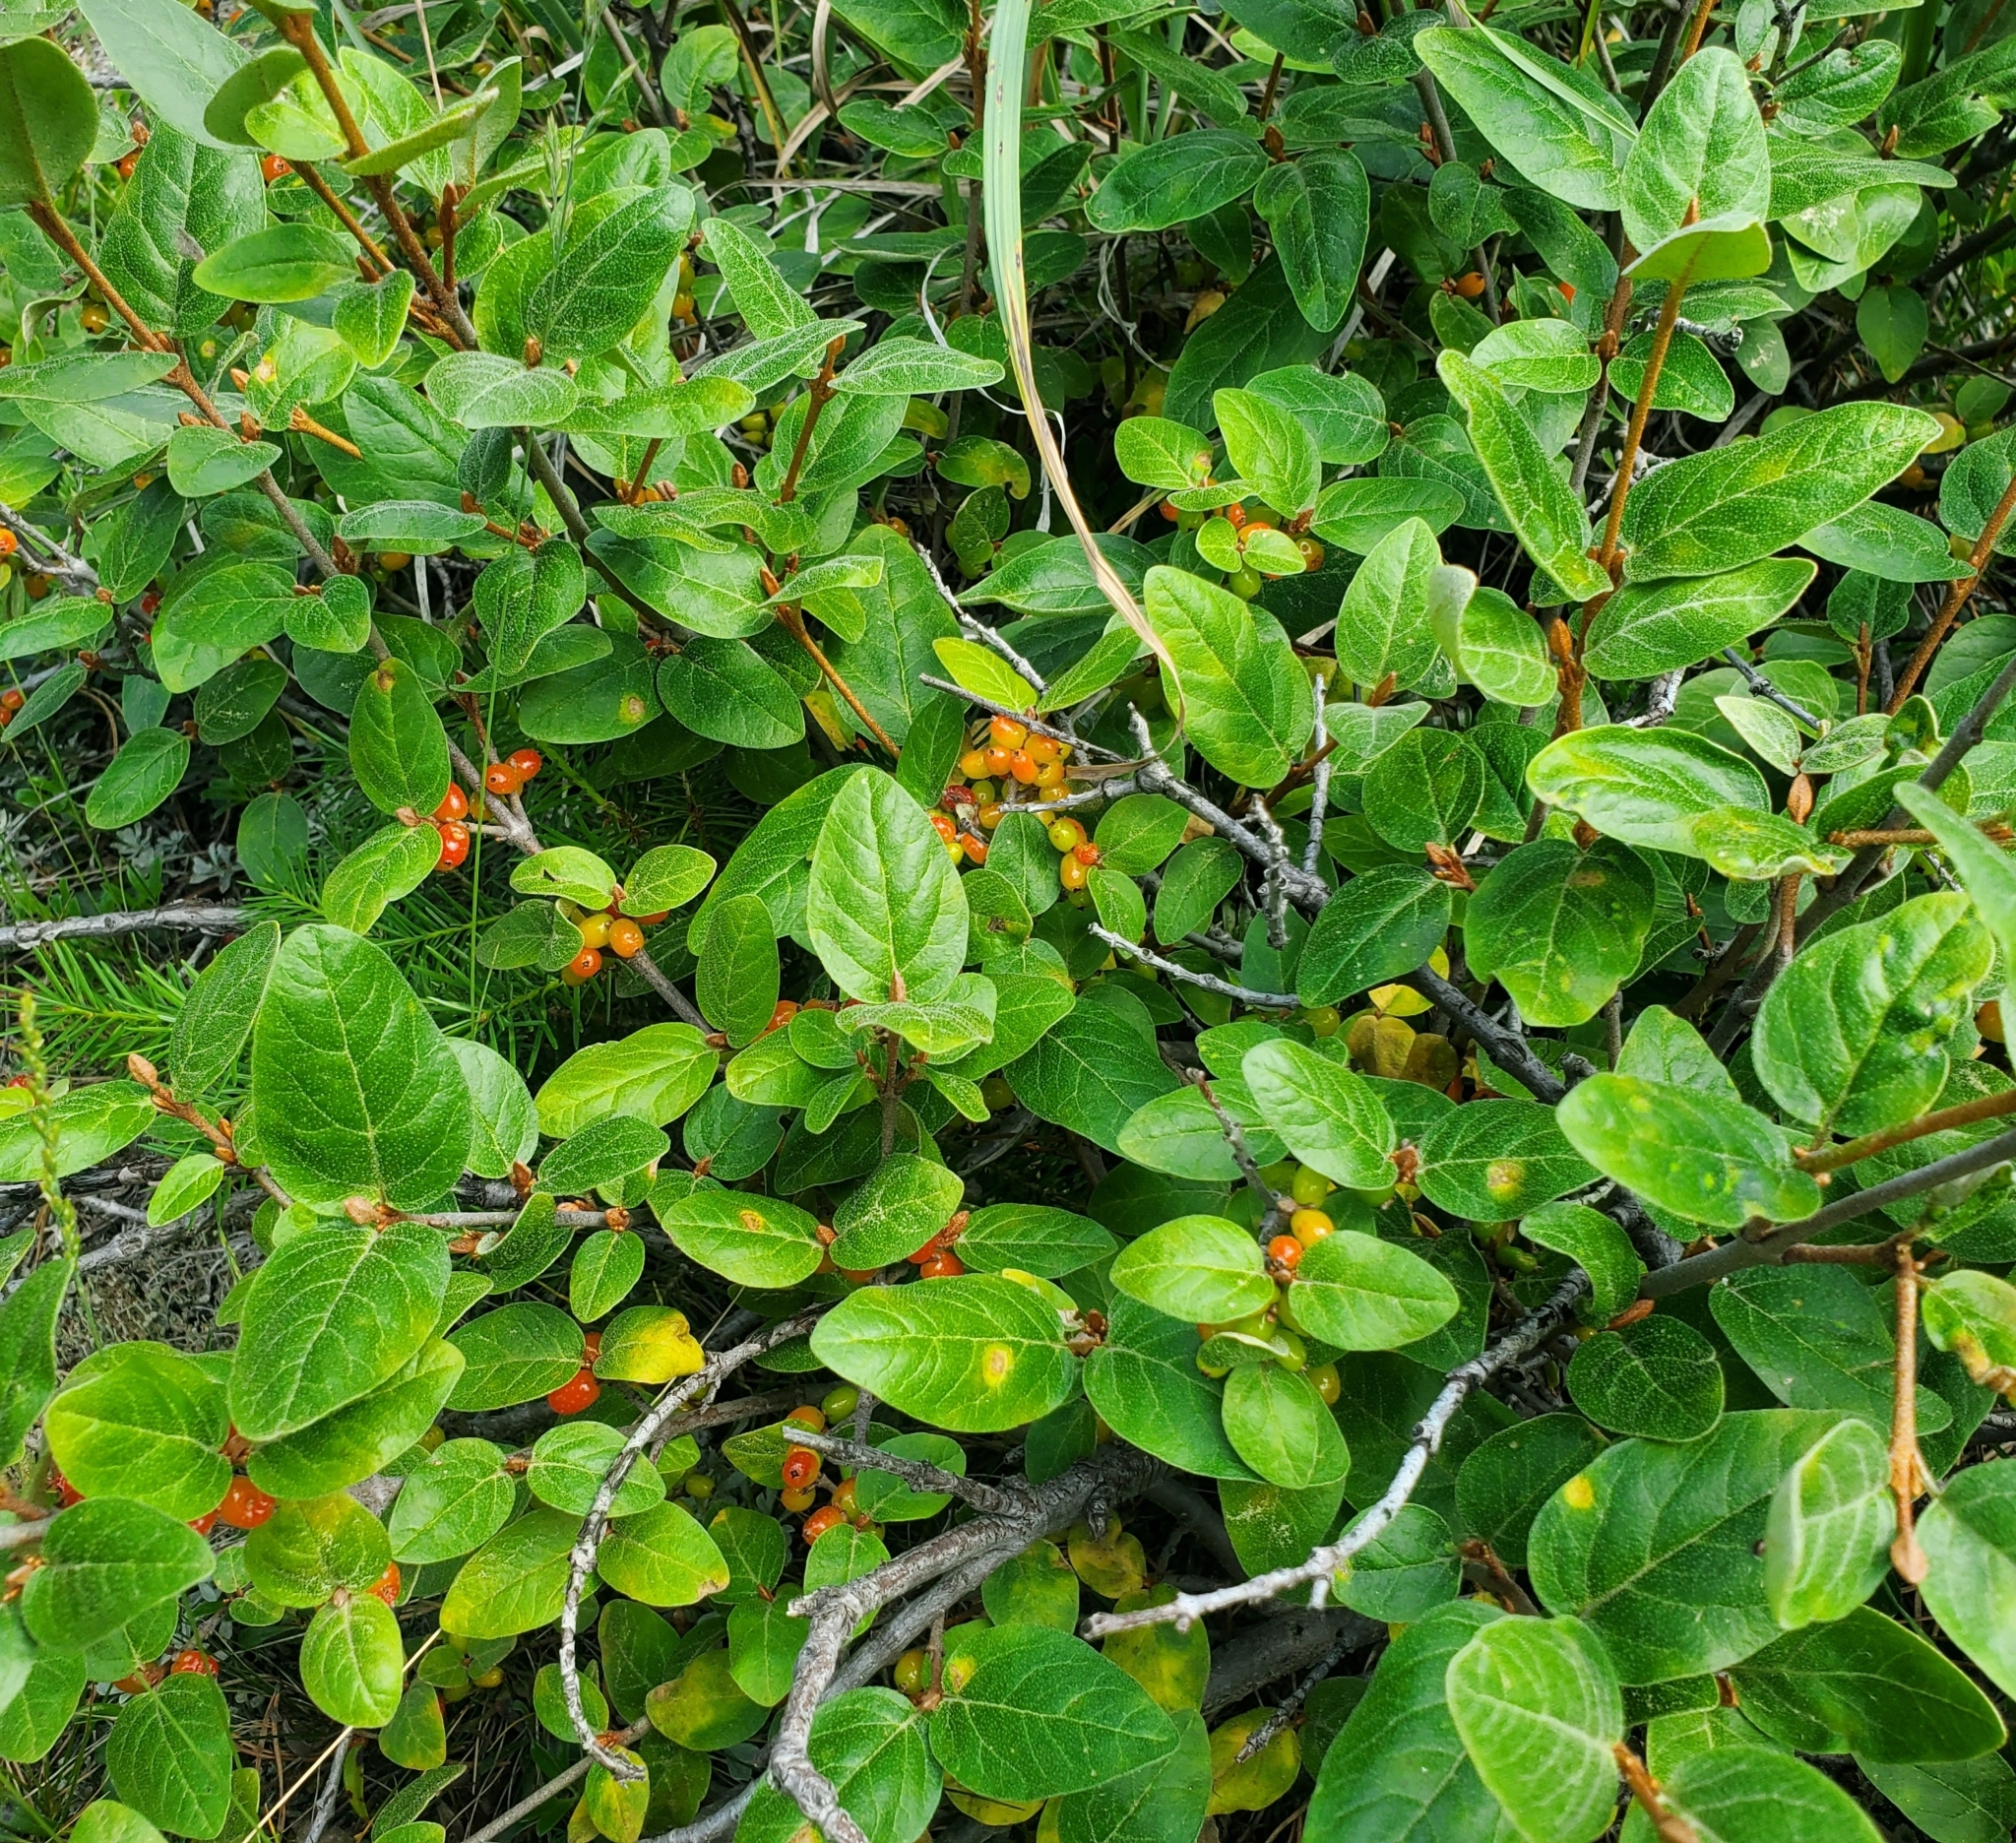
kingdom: Plantae
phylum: Tracheophyta
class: Magnoliopsida
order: Rosales
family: Elaeagnaceae
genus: Shepherdia
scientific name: Shepherdia canadensis
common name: Soapberry
